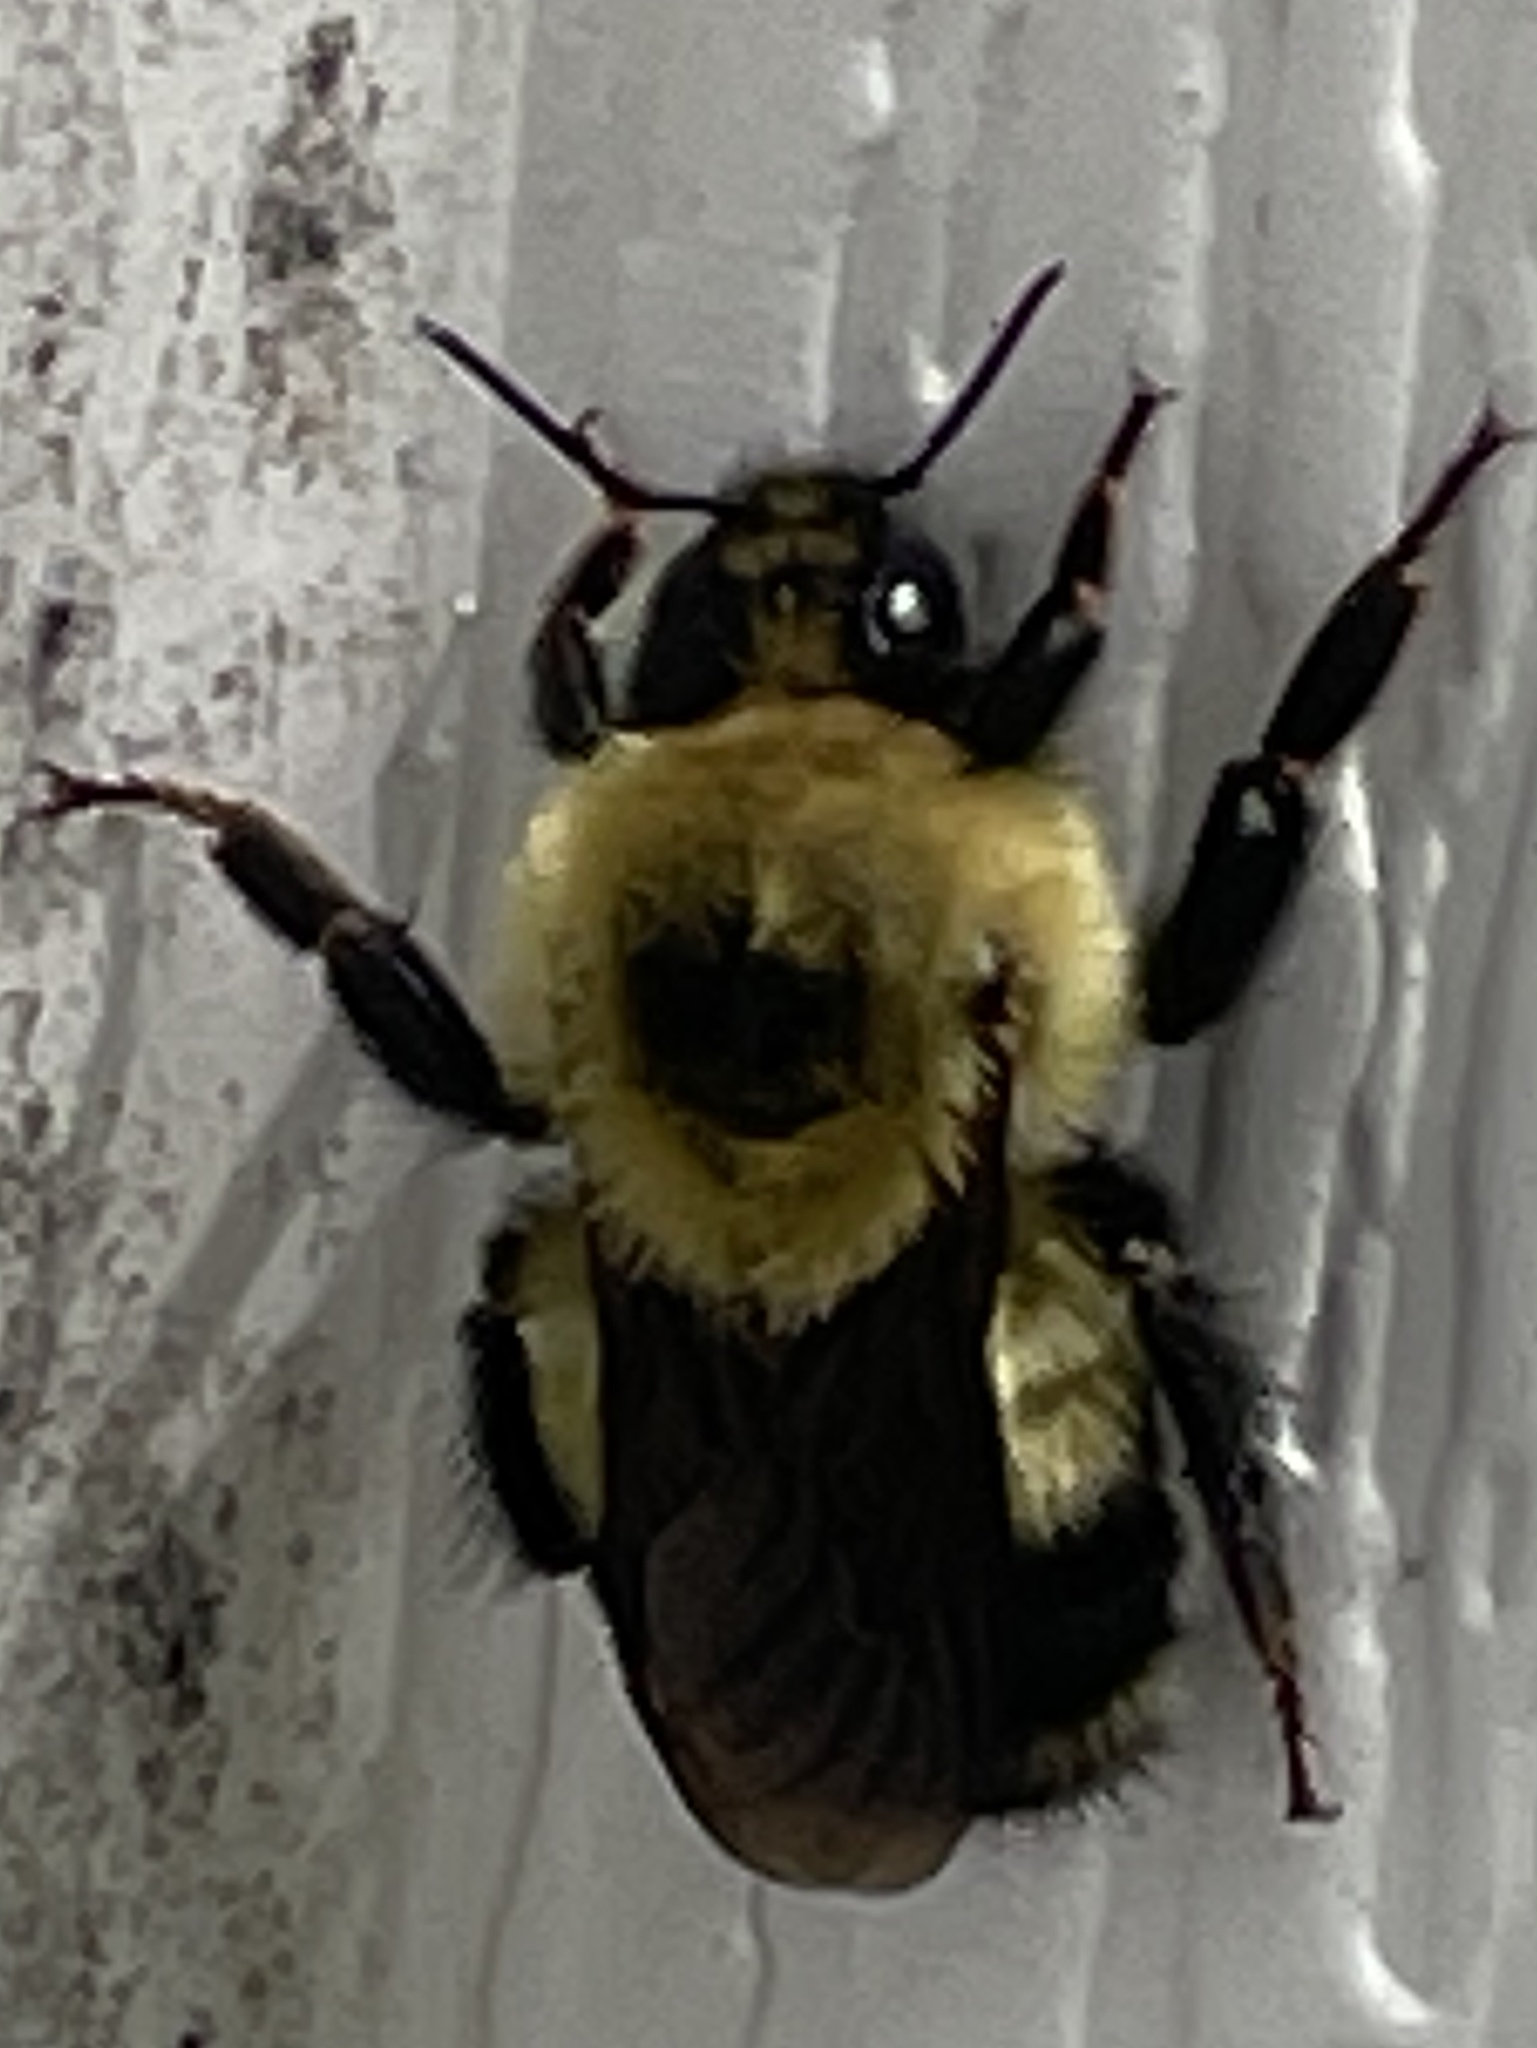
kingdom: Animalia
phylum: Arthropoda
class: Insecta
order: Hymenoptera
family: Apidae
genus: Bombus
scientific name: Bombus rufocinctus
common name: Red-belted bumble bee
